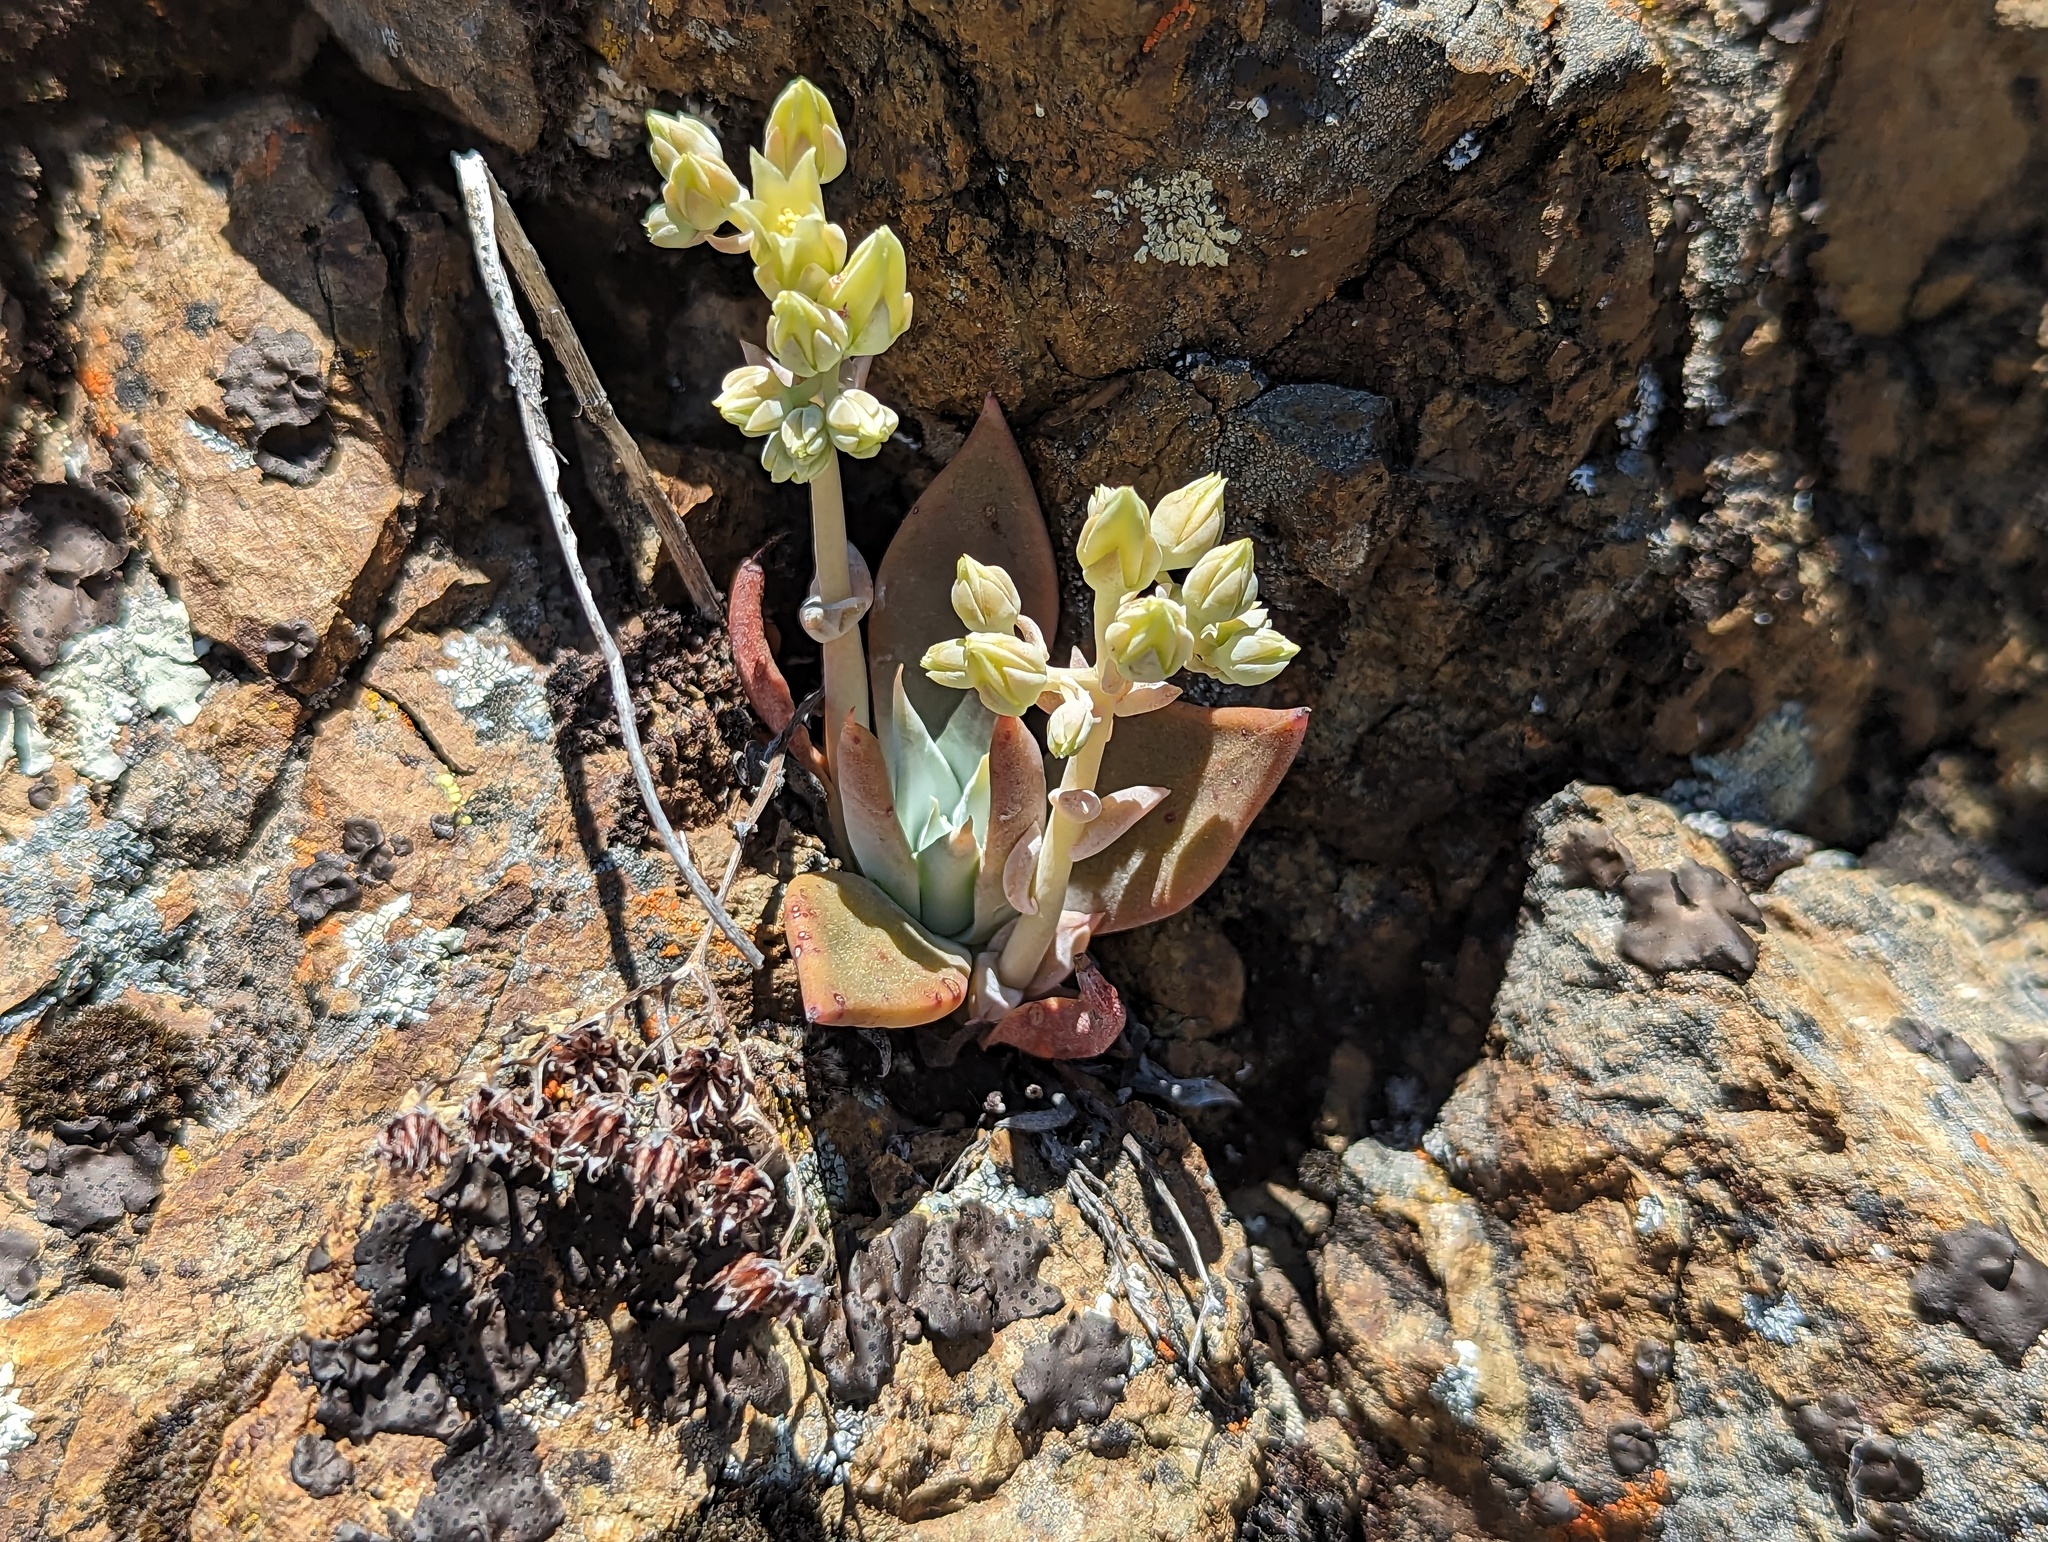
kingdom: Plantae
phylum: Tracheophyta
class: Magnoliopsida
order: Saxifragales
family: Crassulaceae
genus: Dudleya
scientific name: Dudleya cymosa
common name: Canyon dudleya
